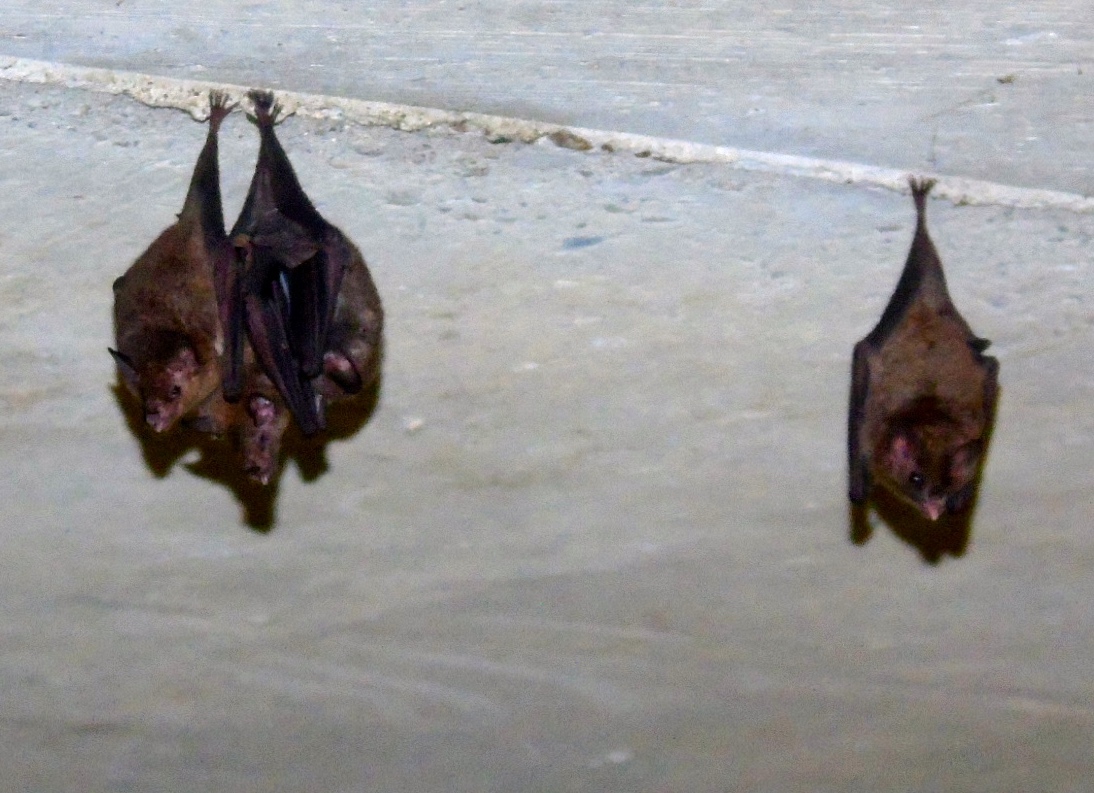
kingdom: Animalia
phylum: Chordata
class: Mammalia
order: Chiroptera
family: Phyllostomidae
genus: Glossophaga
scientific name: Glossophaga soricina
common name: Pallas's long-tongued bat
